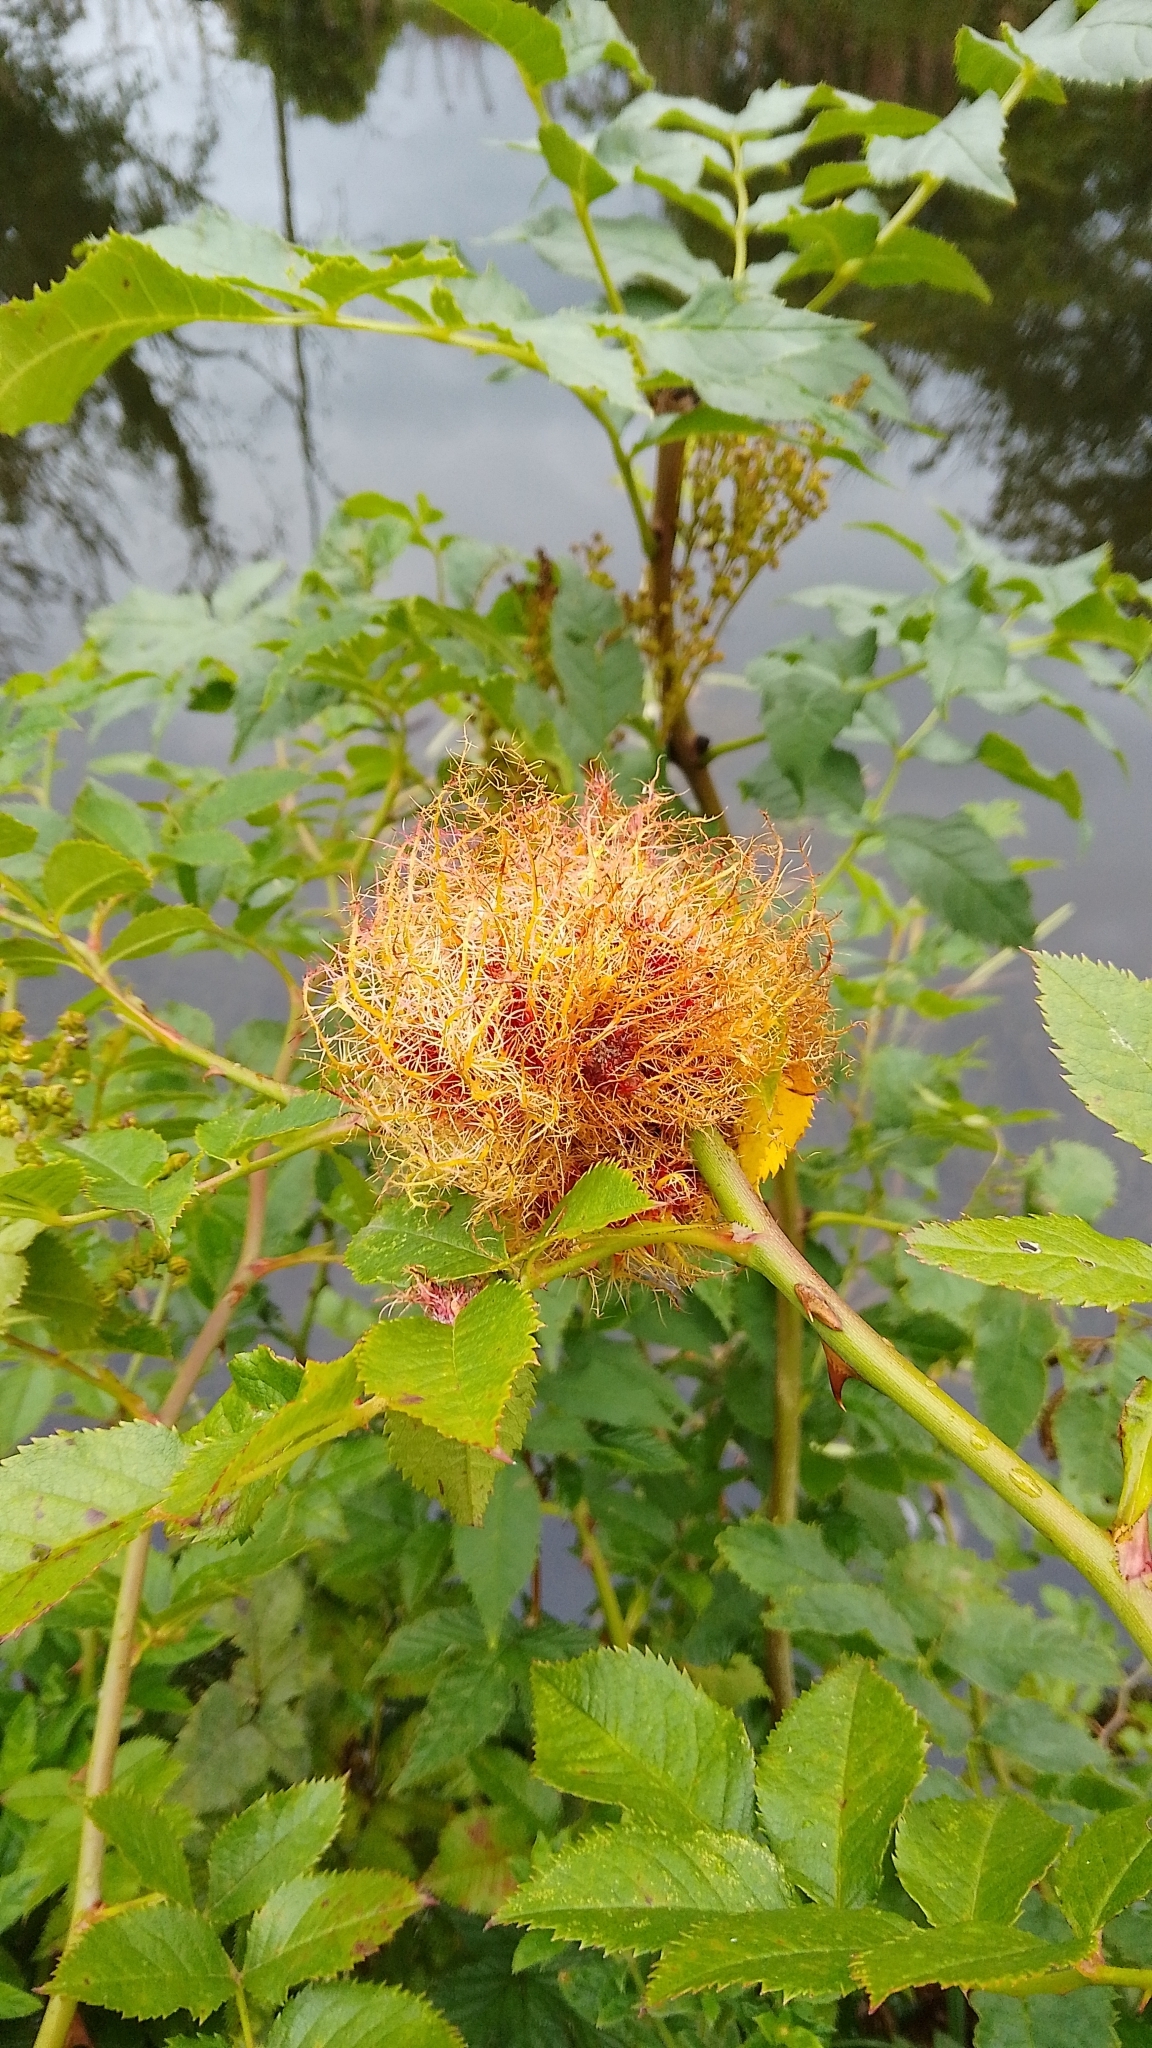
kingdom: Animalia
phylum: Arthropoda
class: Insecta
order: Hymenoptera
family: Cynipidae
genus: Diplolepis
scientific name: Diplolepis rosae
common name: Bedeguar gall
